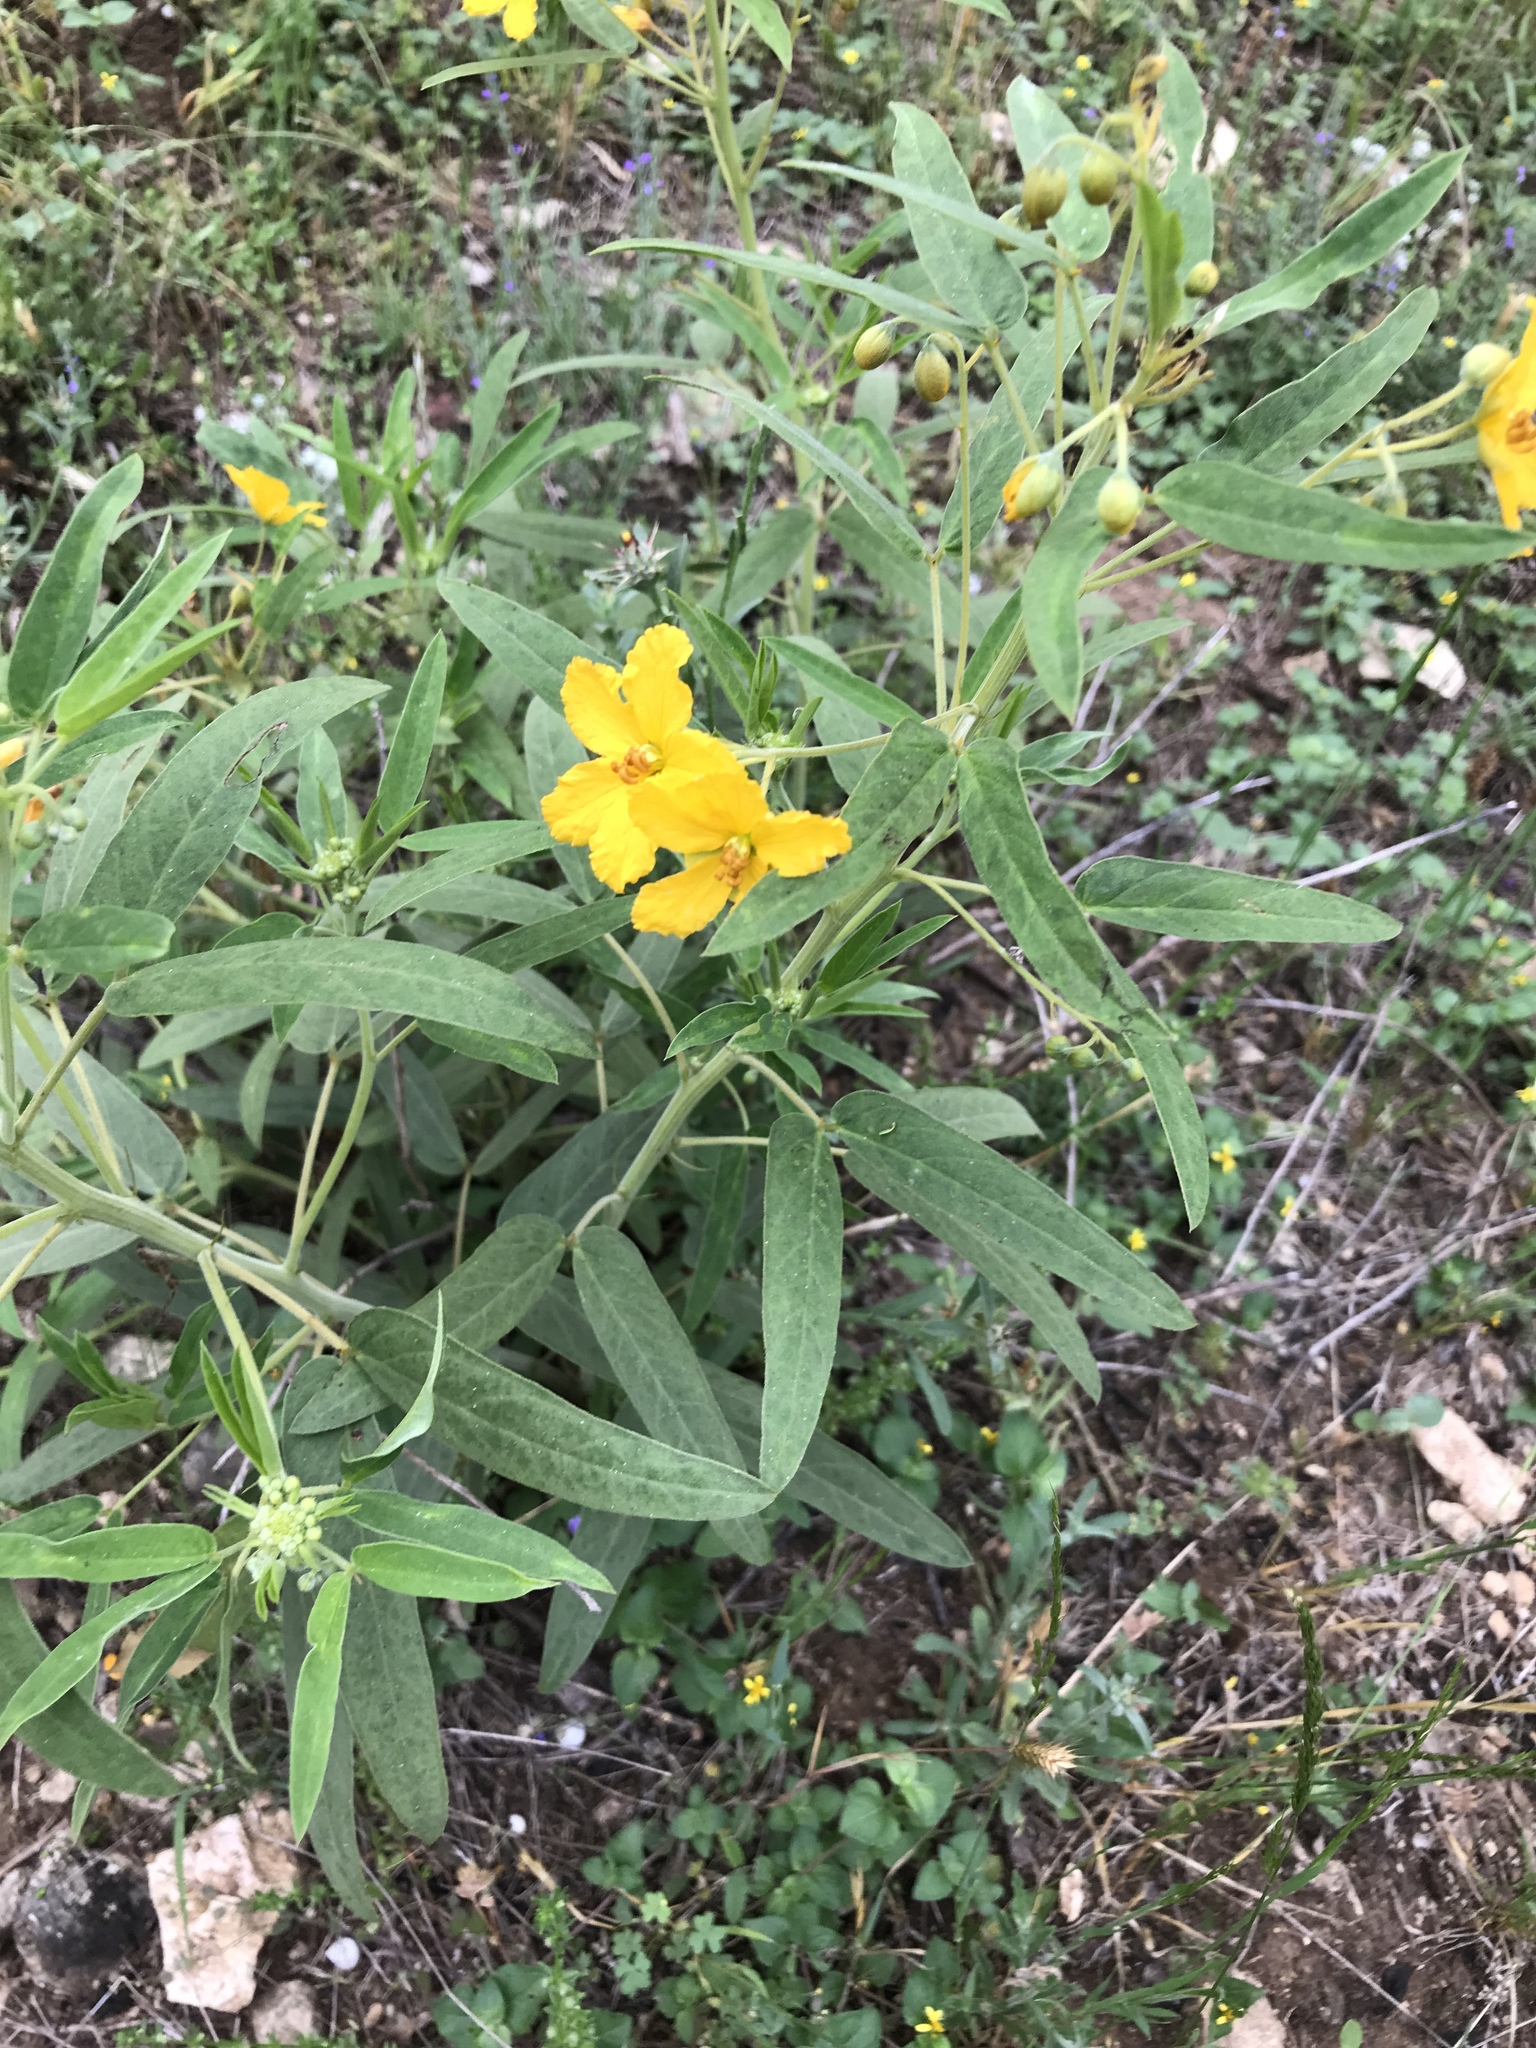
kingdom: Plantae
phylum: Tracheophyta
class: Magnoliopsida
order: Fabales
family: Fabaceae
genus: Senna
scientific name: Senna roemeriana
